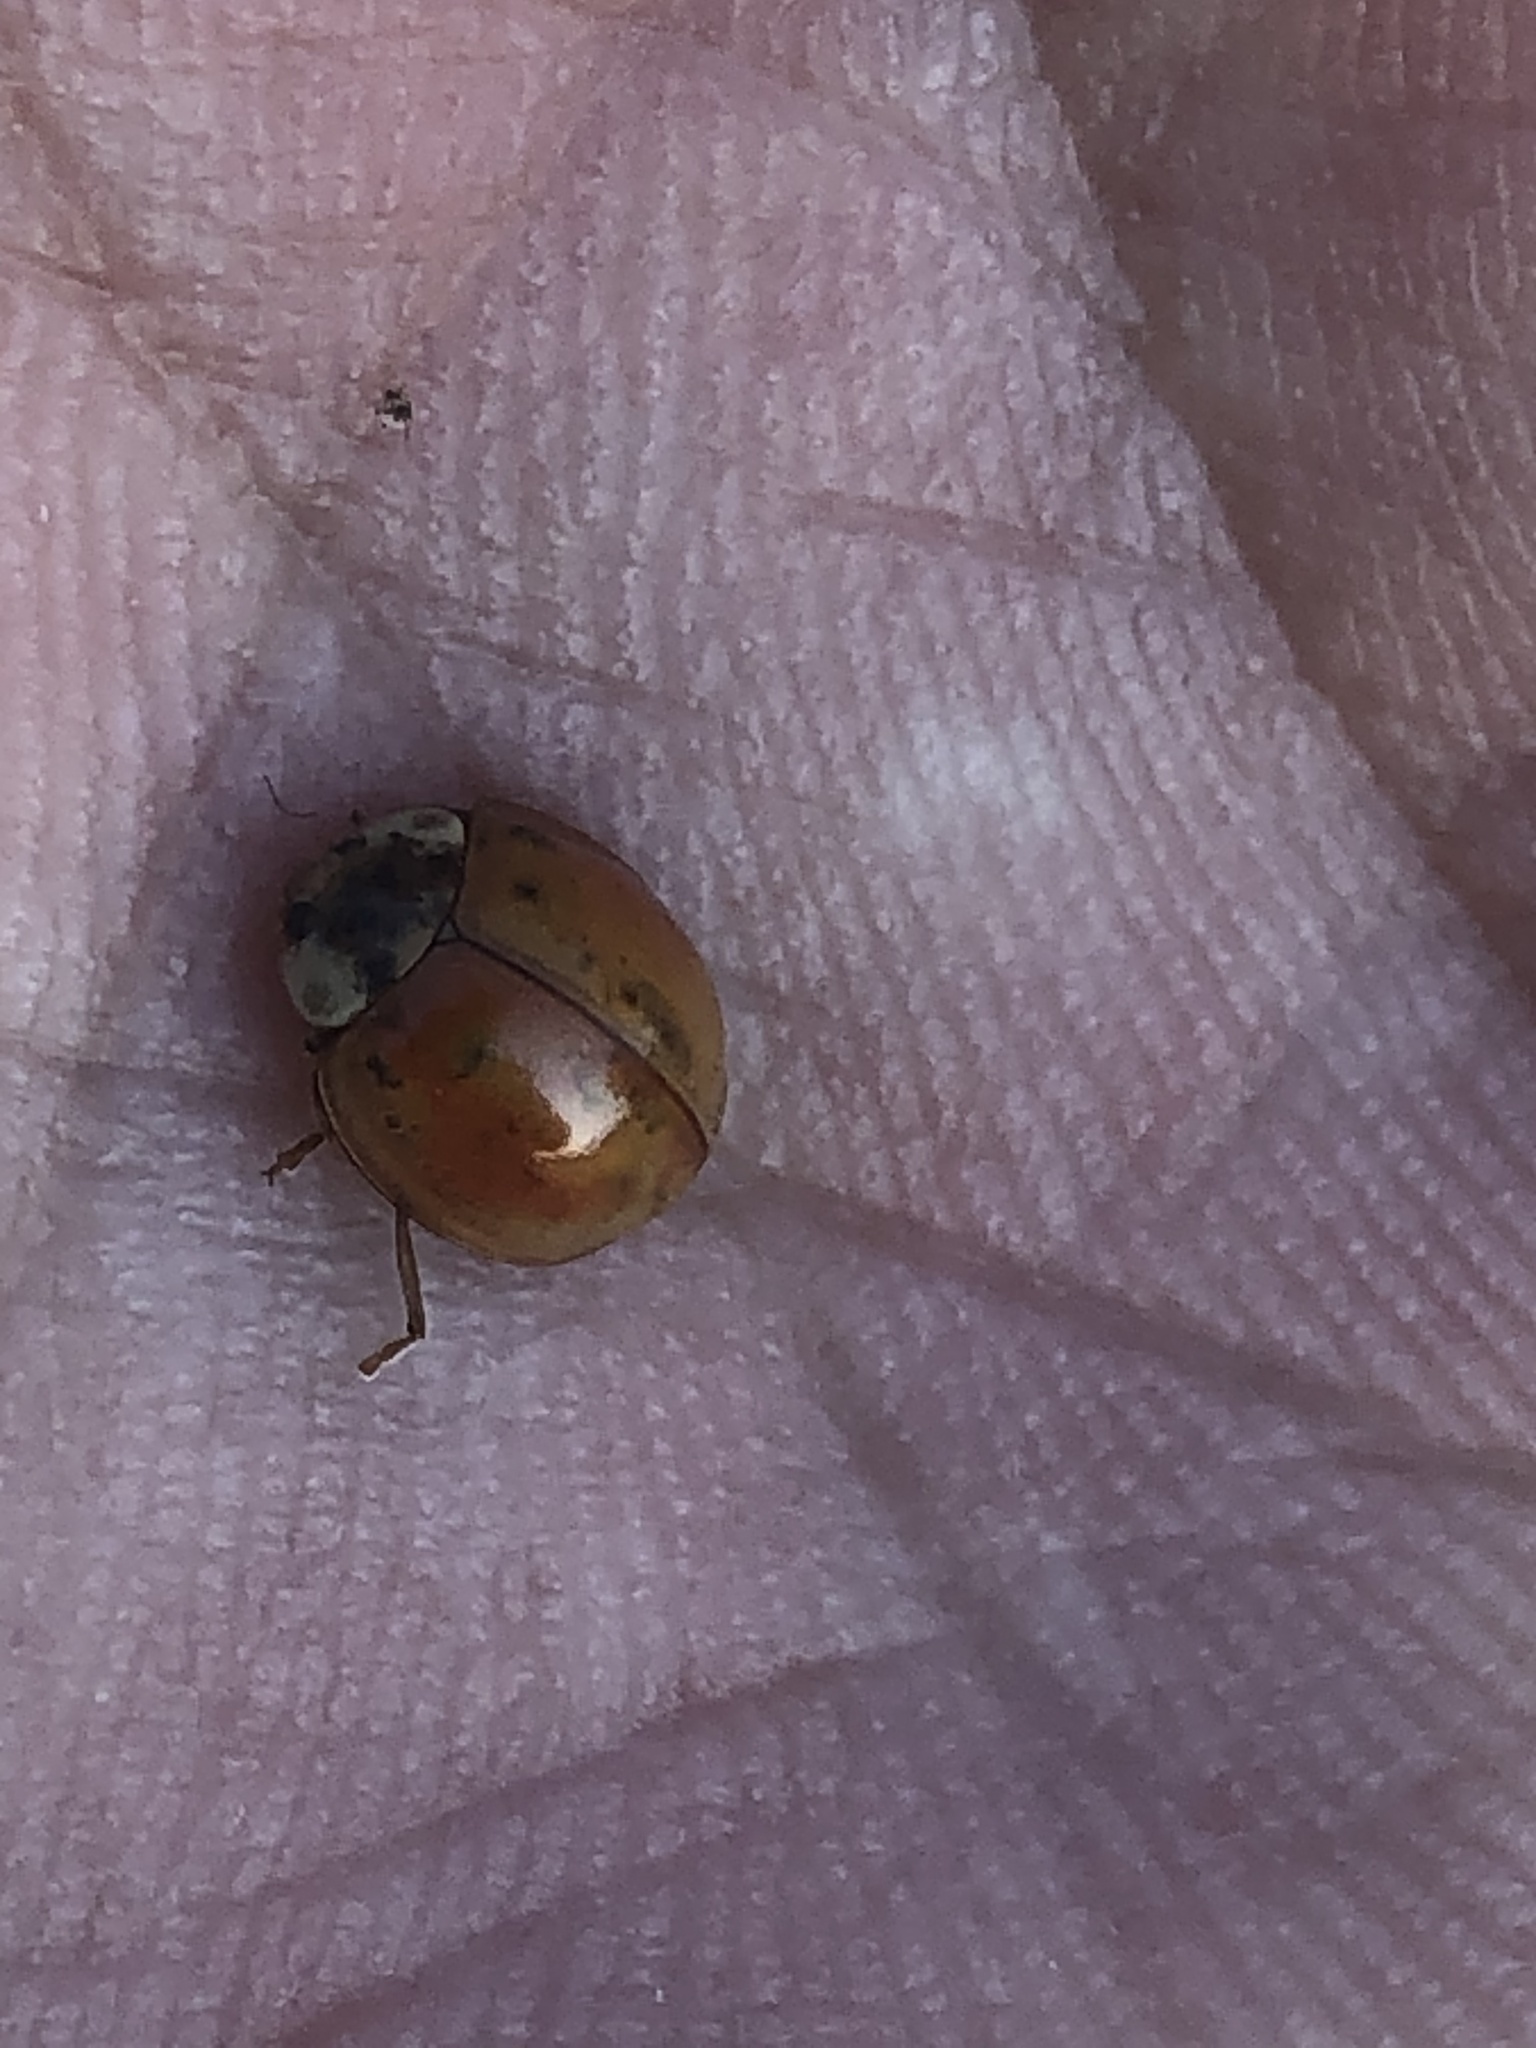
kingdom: Animalia
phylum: Arthropoda
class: Insecta
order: Coleoptera
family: Coccinellidae
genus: Harmonia
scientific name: Harmonia axyridis
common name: Harlequin ladybird
